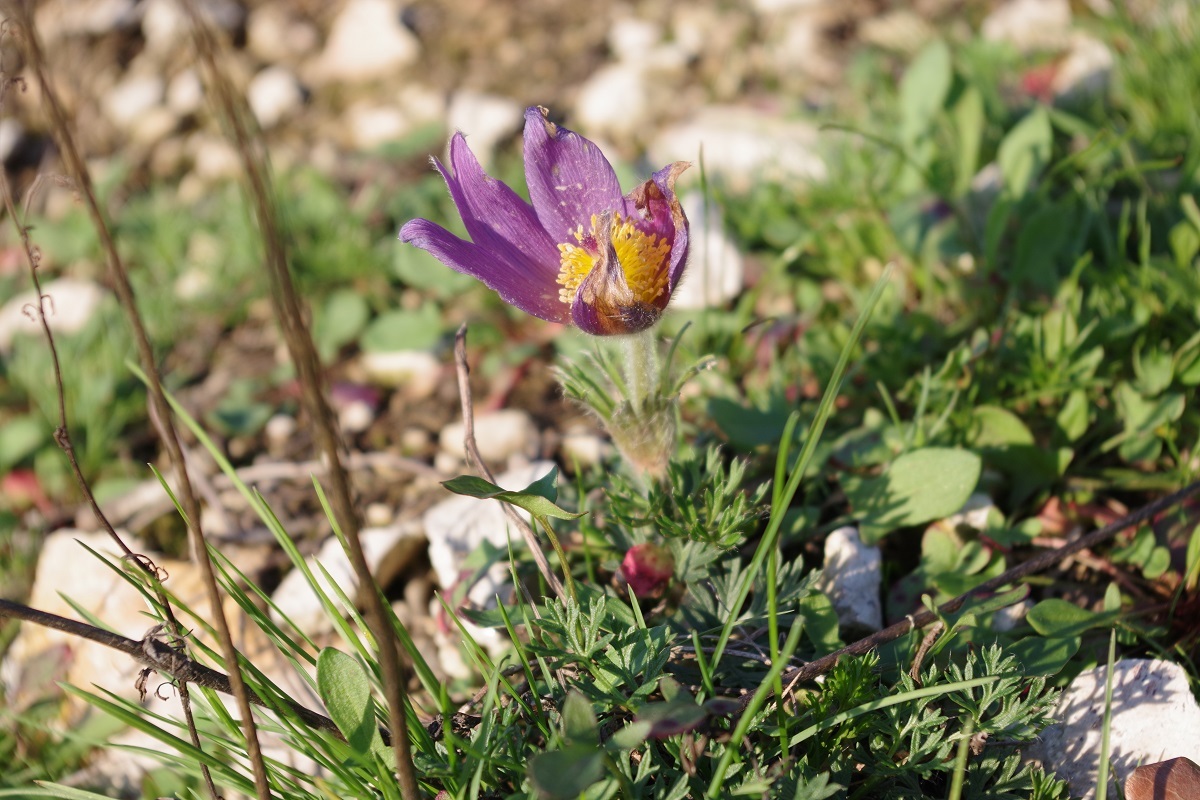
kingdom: Plantae
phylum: Tracheophyta
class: Magnoliopsida
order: Ranunculales
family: Ranunculaceae
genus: Pulsatilla
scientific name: Pulsatilla vulgaris
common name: Pasqueflower
